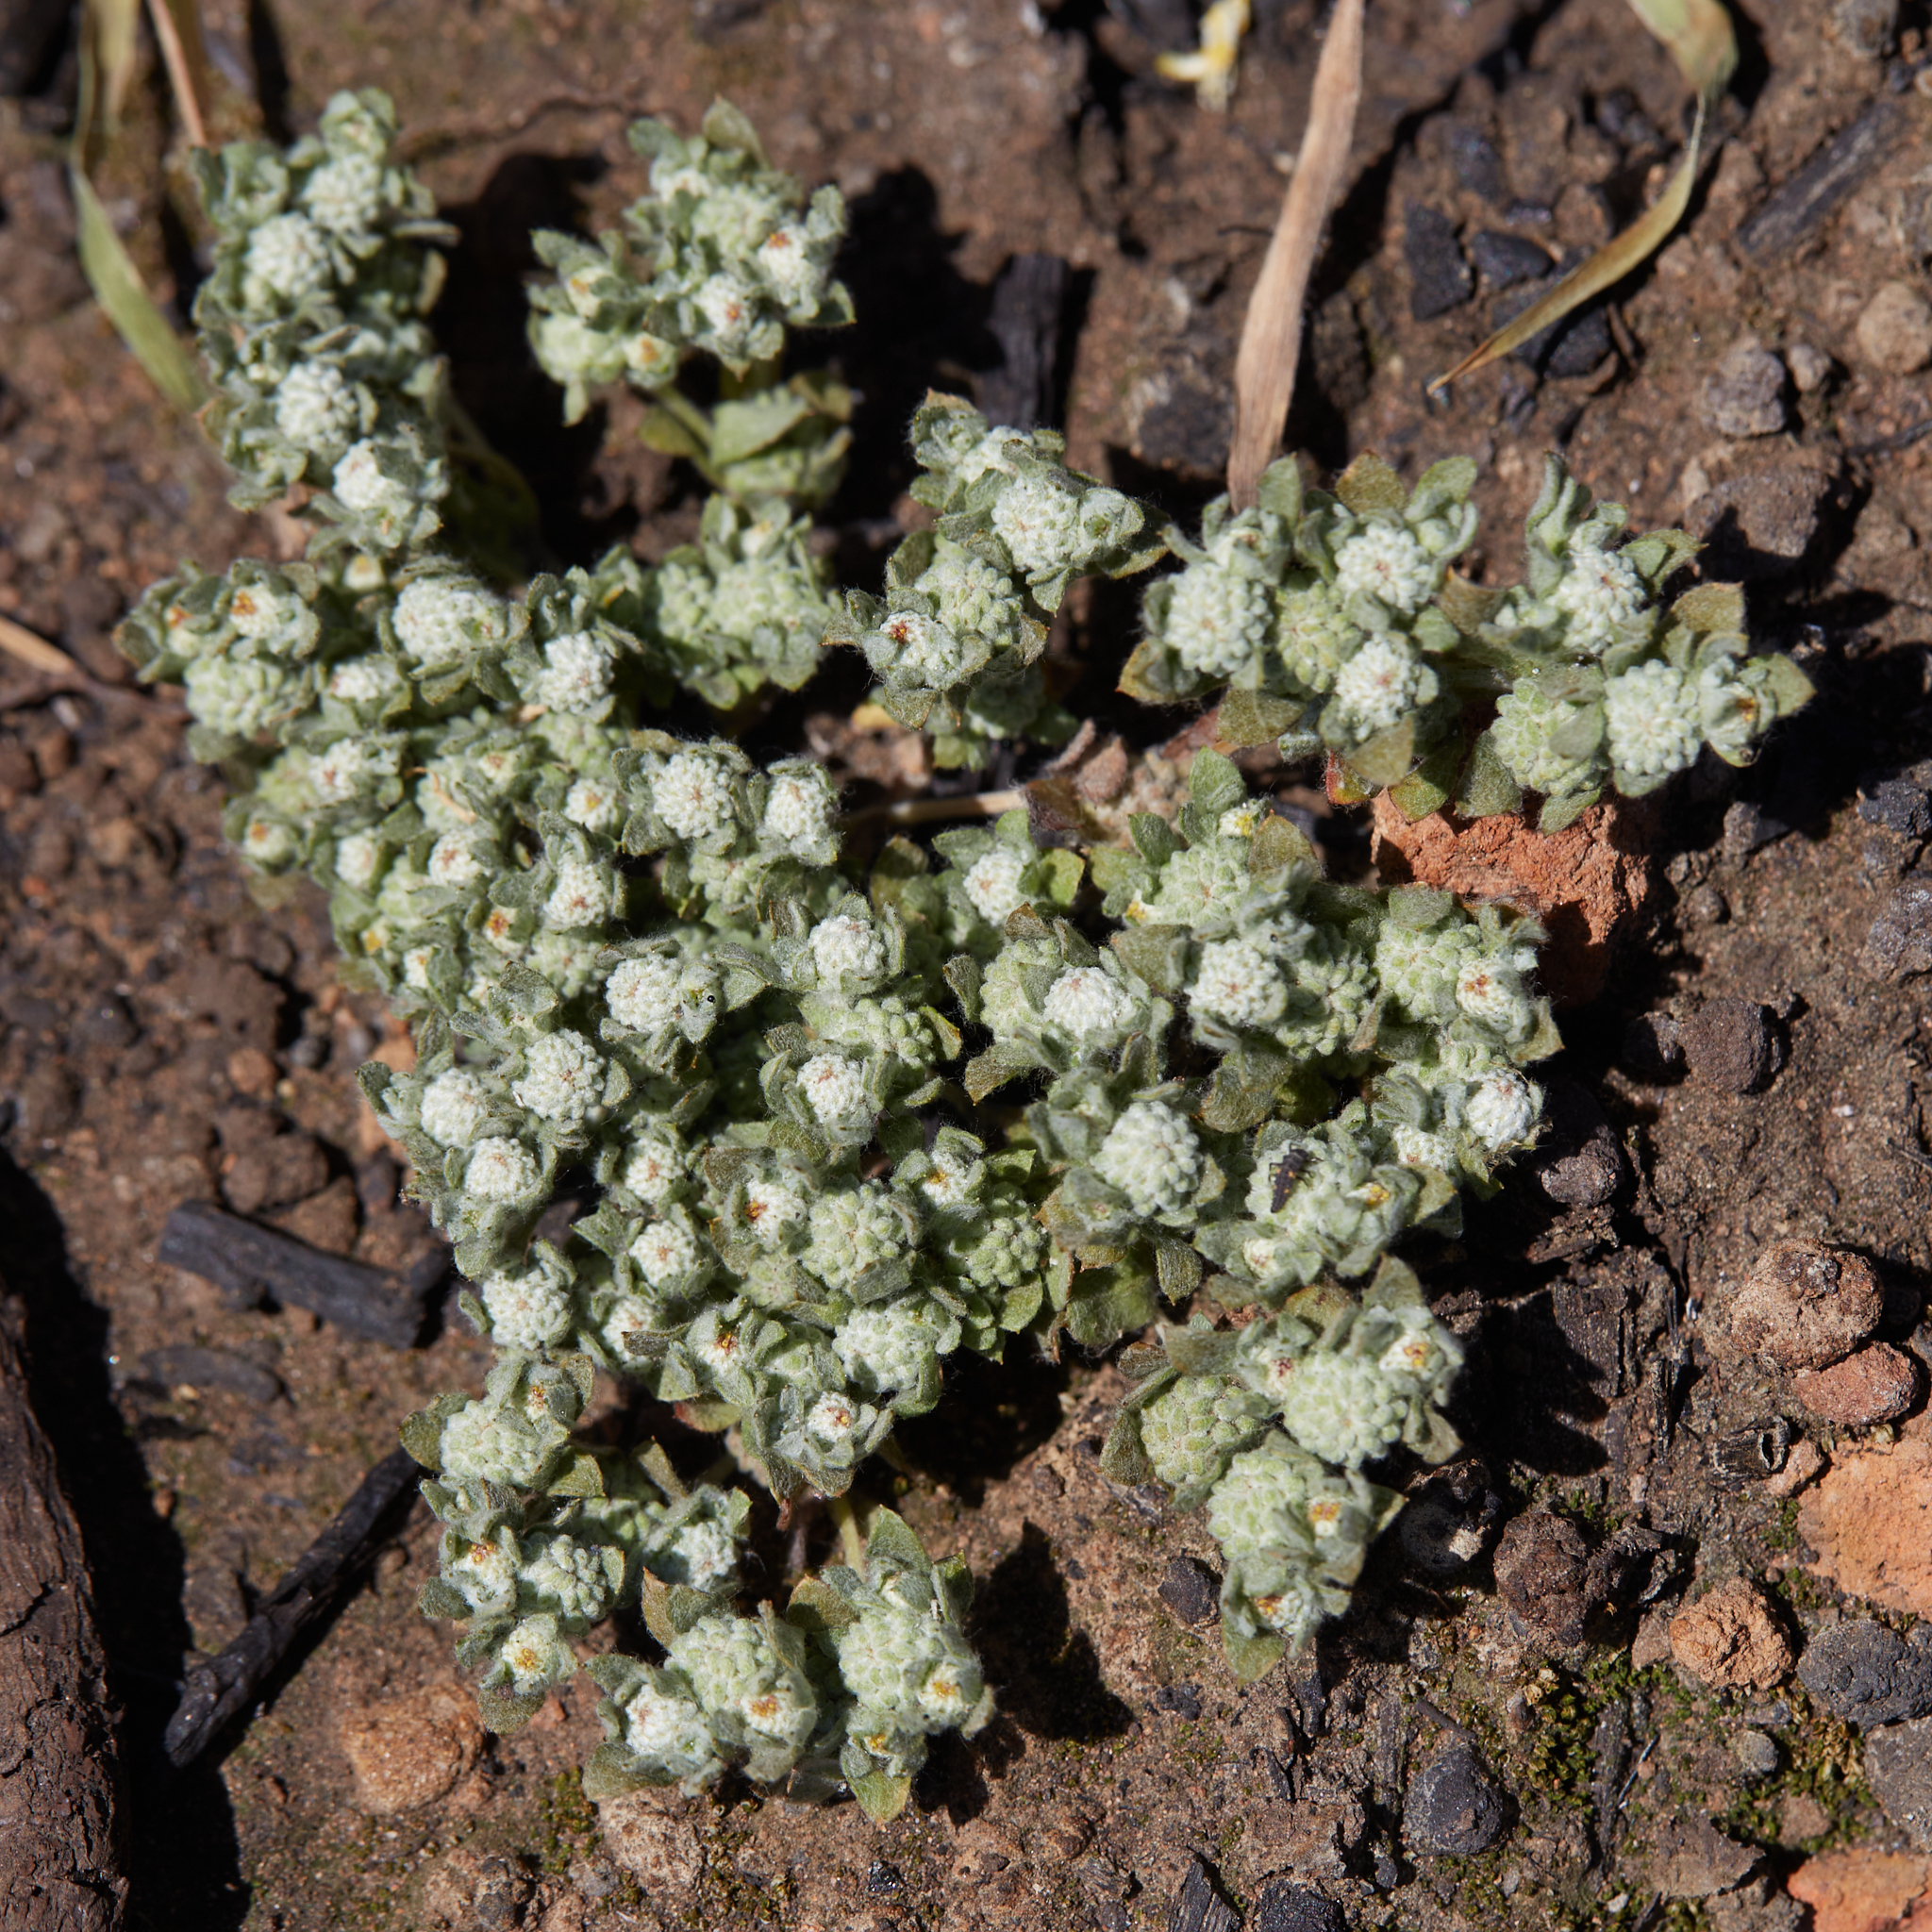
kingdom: Plantae
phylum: Tracheophyta
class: Magnoliopsida
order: Asterales
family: Asteraceae
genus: Psilocarphus
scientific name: Psilocarphus tenellus
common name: Slender woolly-marbles
